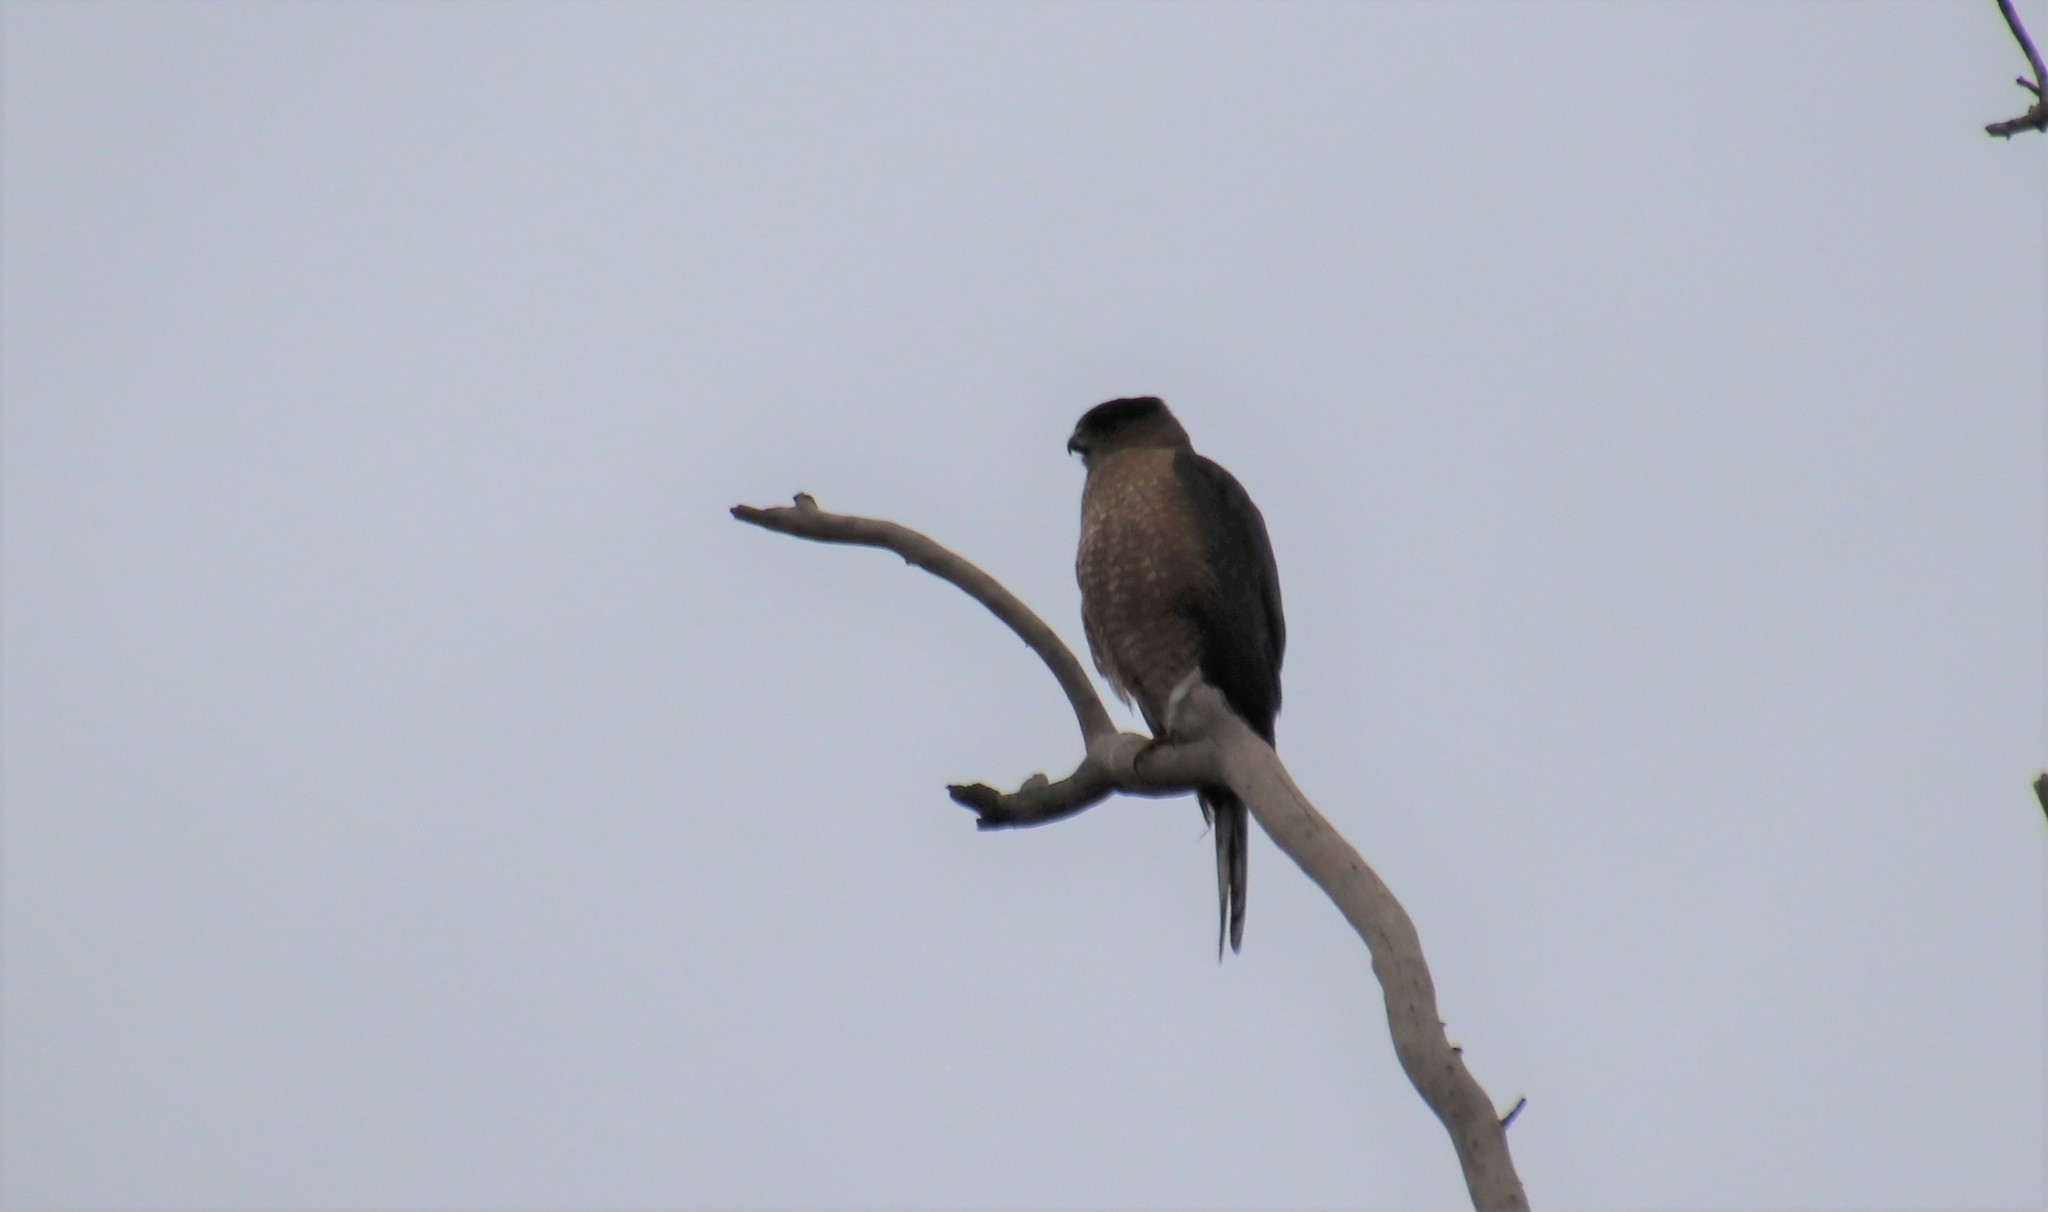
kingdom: Animalia
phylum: Chordata
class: Aves
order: Accipitriformes
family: Accipitridae
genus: Accipiter
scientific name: Accipiter cooperii
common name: Cooper's hawk
